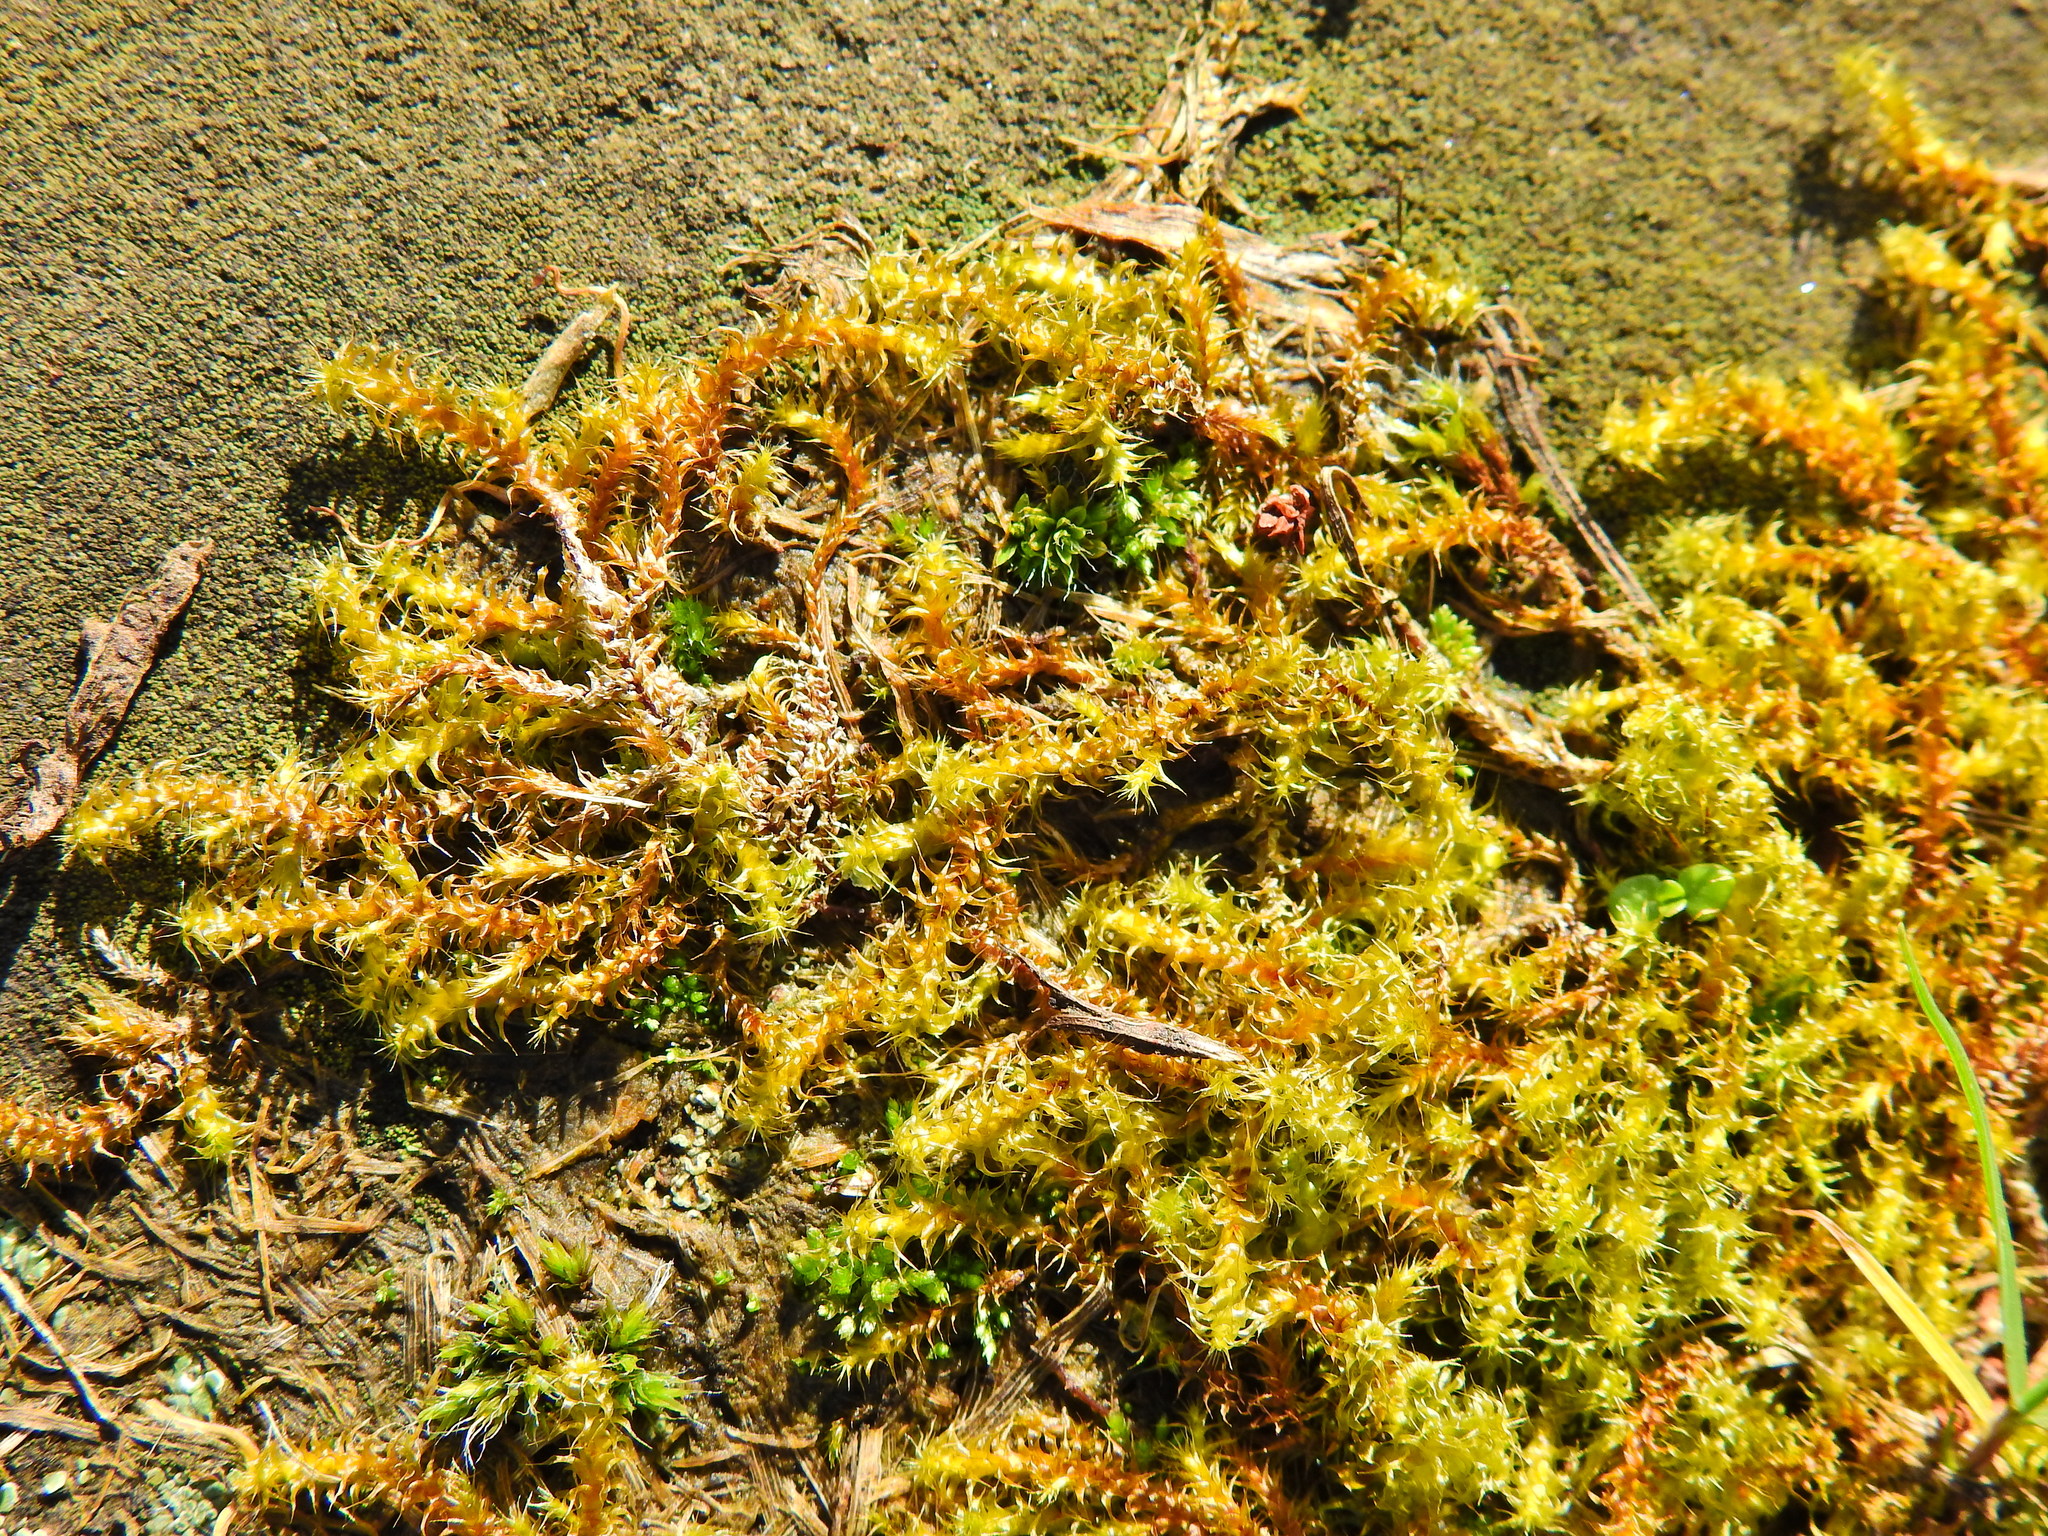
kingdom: Plantae
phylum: Bryophyta
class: Bryopsida
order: Hypnales
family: Hylocomiaceae
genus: Rhytidiadelphus
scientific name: Rhytidiadelphus squarrosus
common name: Springy turf-moss
